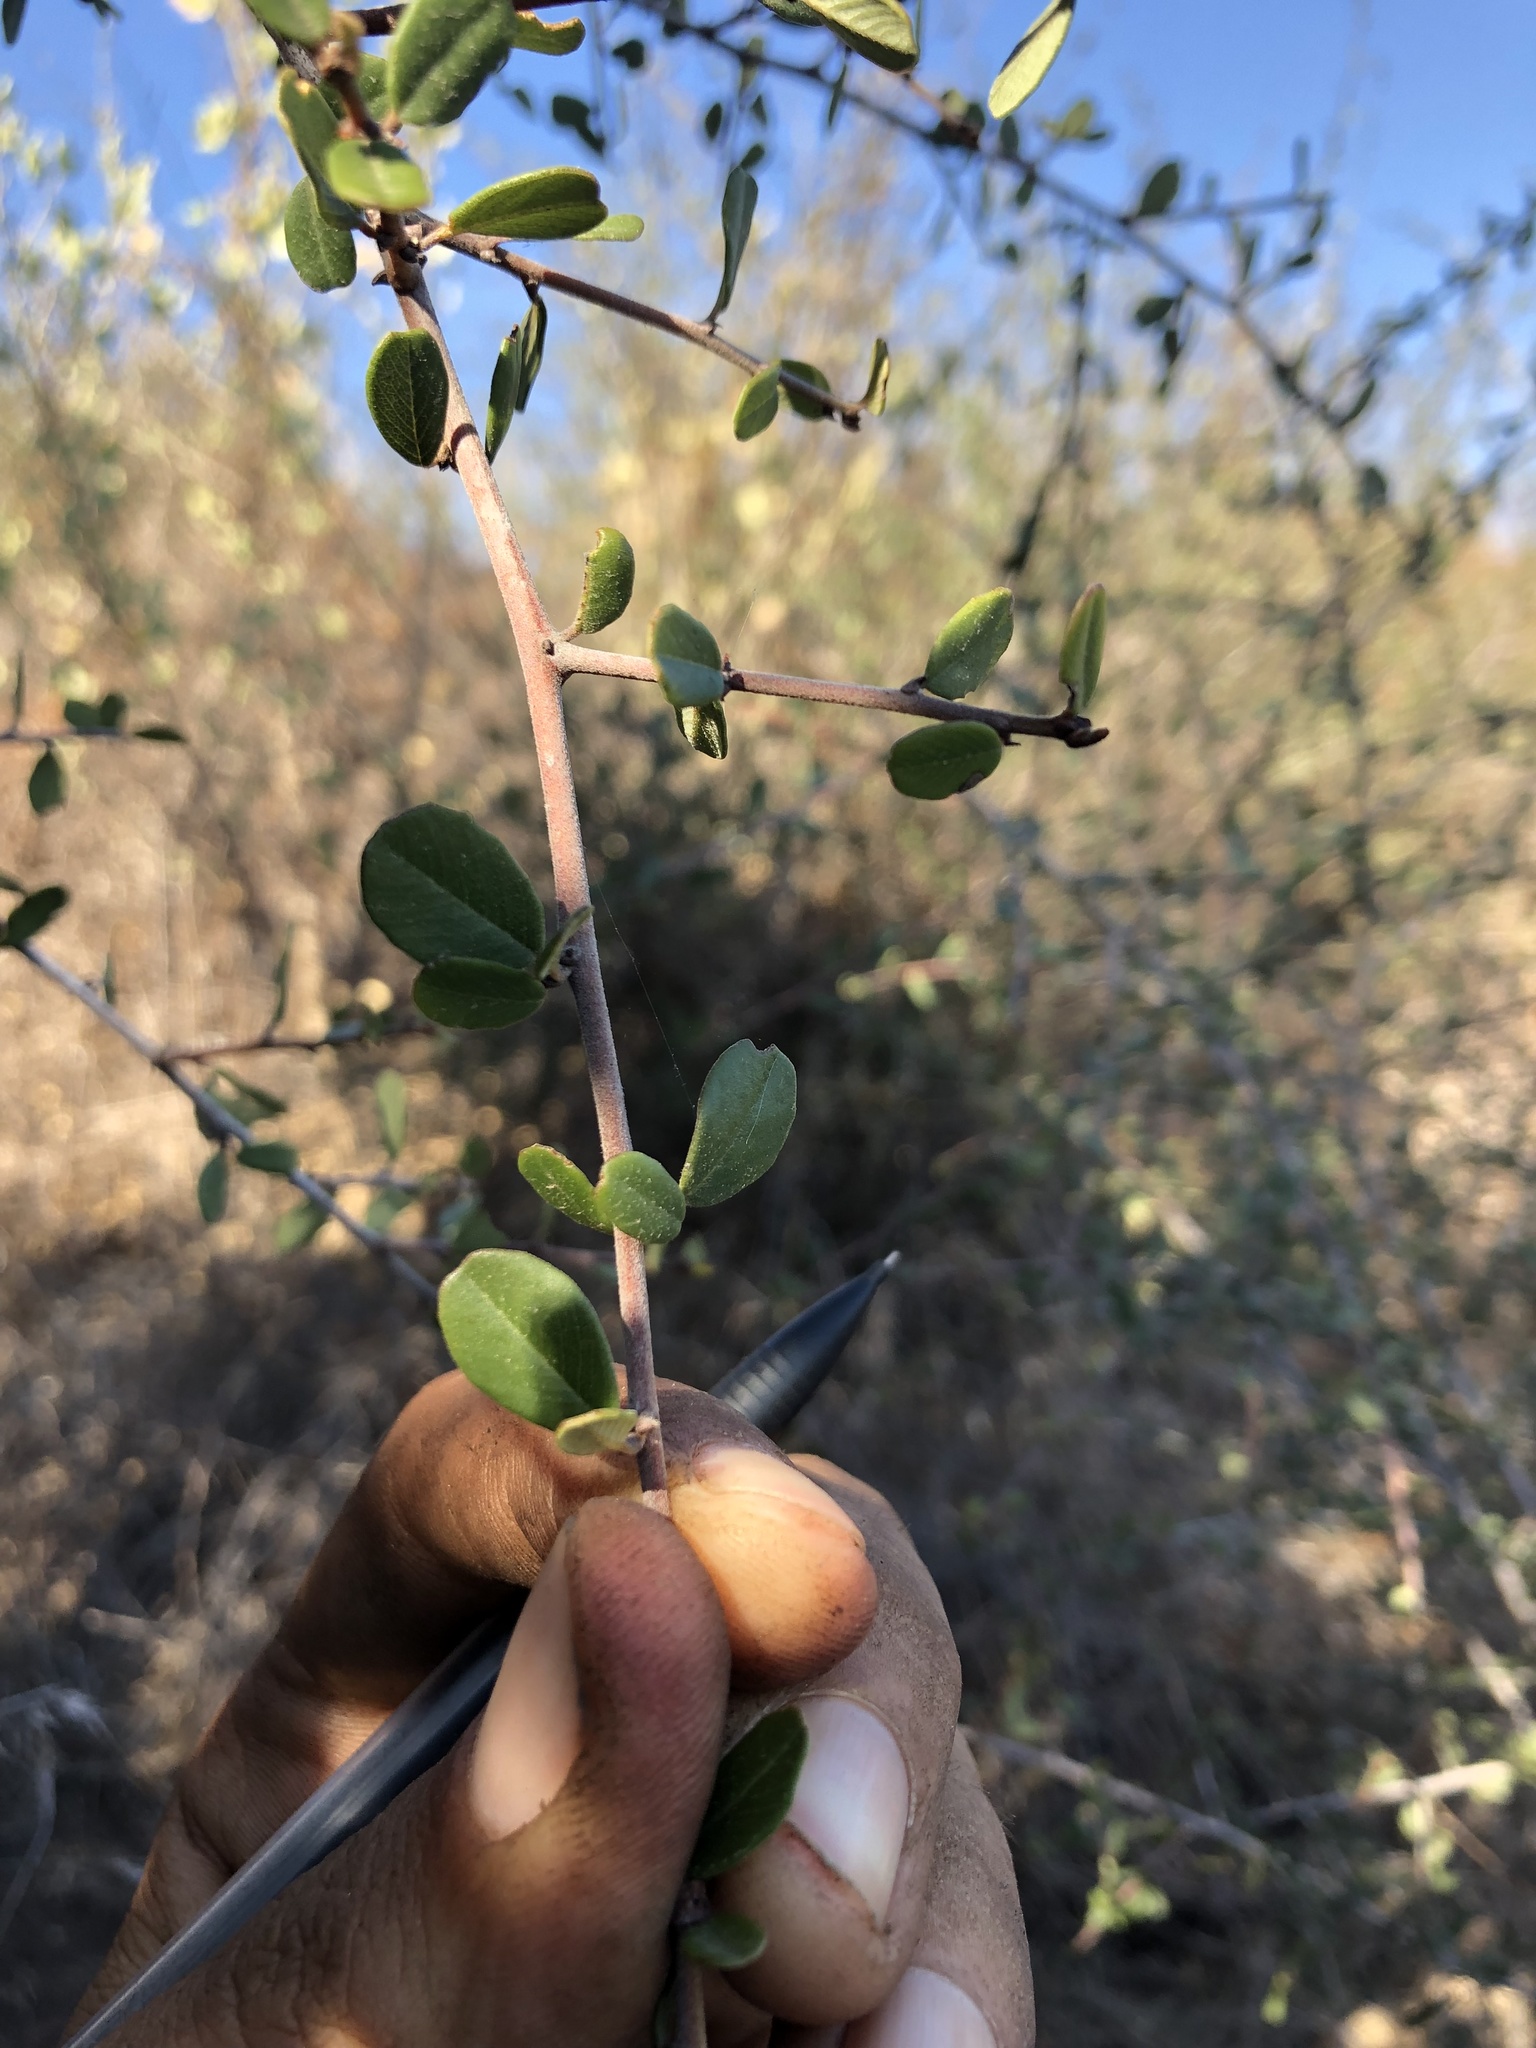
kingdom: Plantae
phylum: Tracheophyta
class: Magnoliopsida
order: Rosales
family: Rhamnaceae
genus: Ceanothus
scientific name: Ceanothus megacarpus
